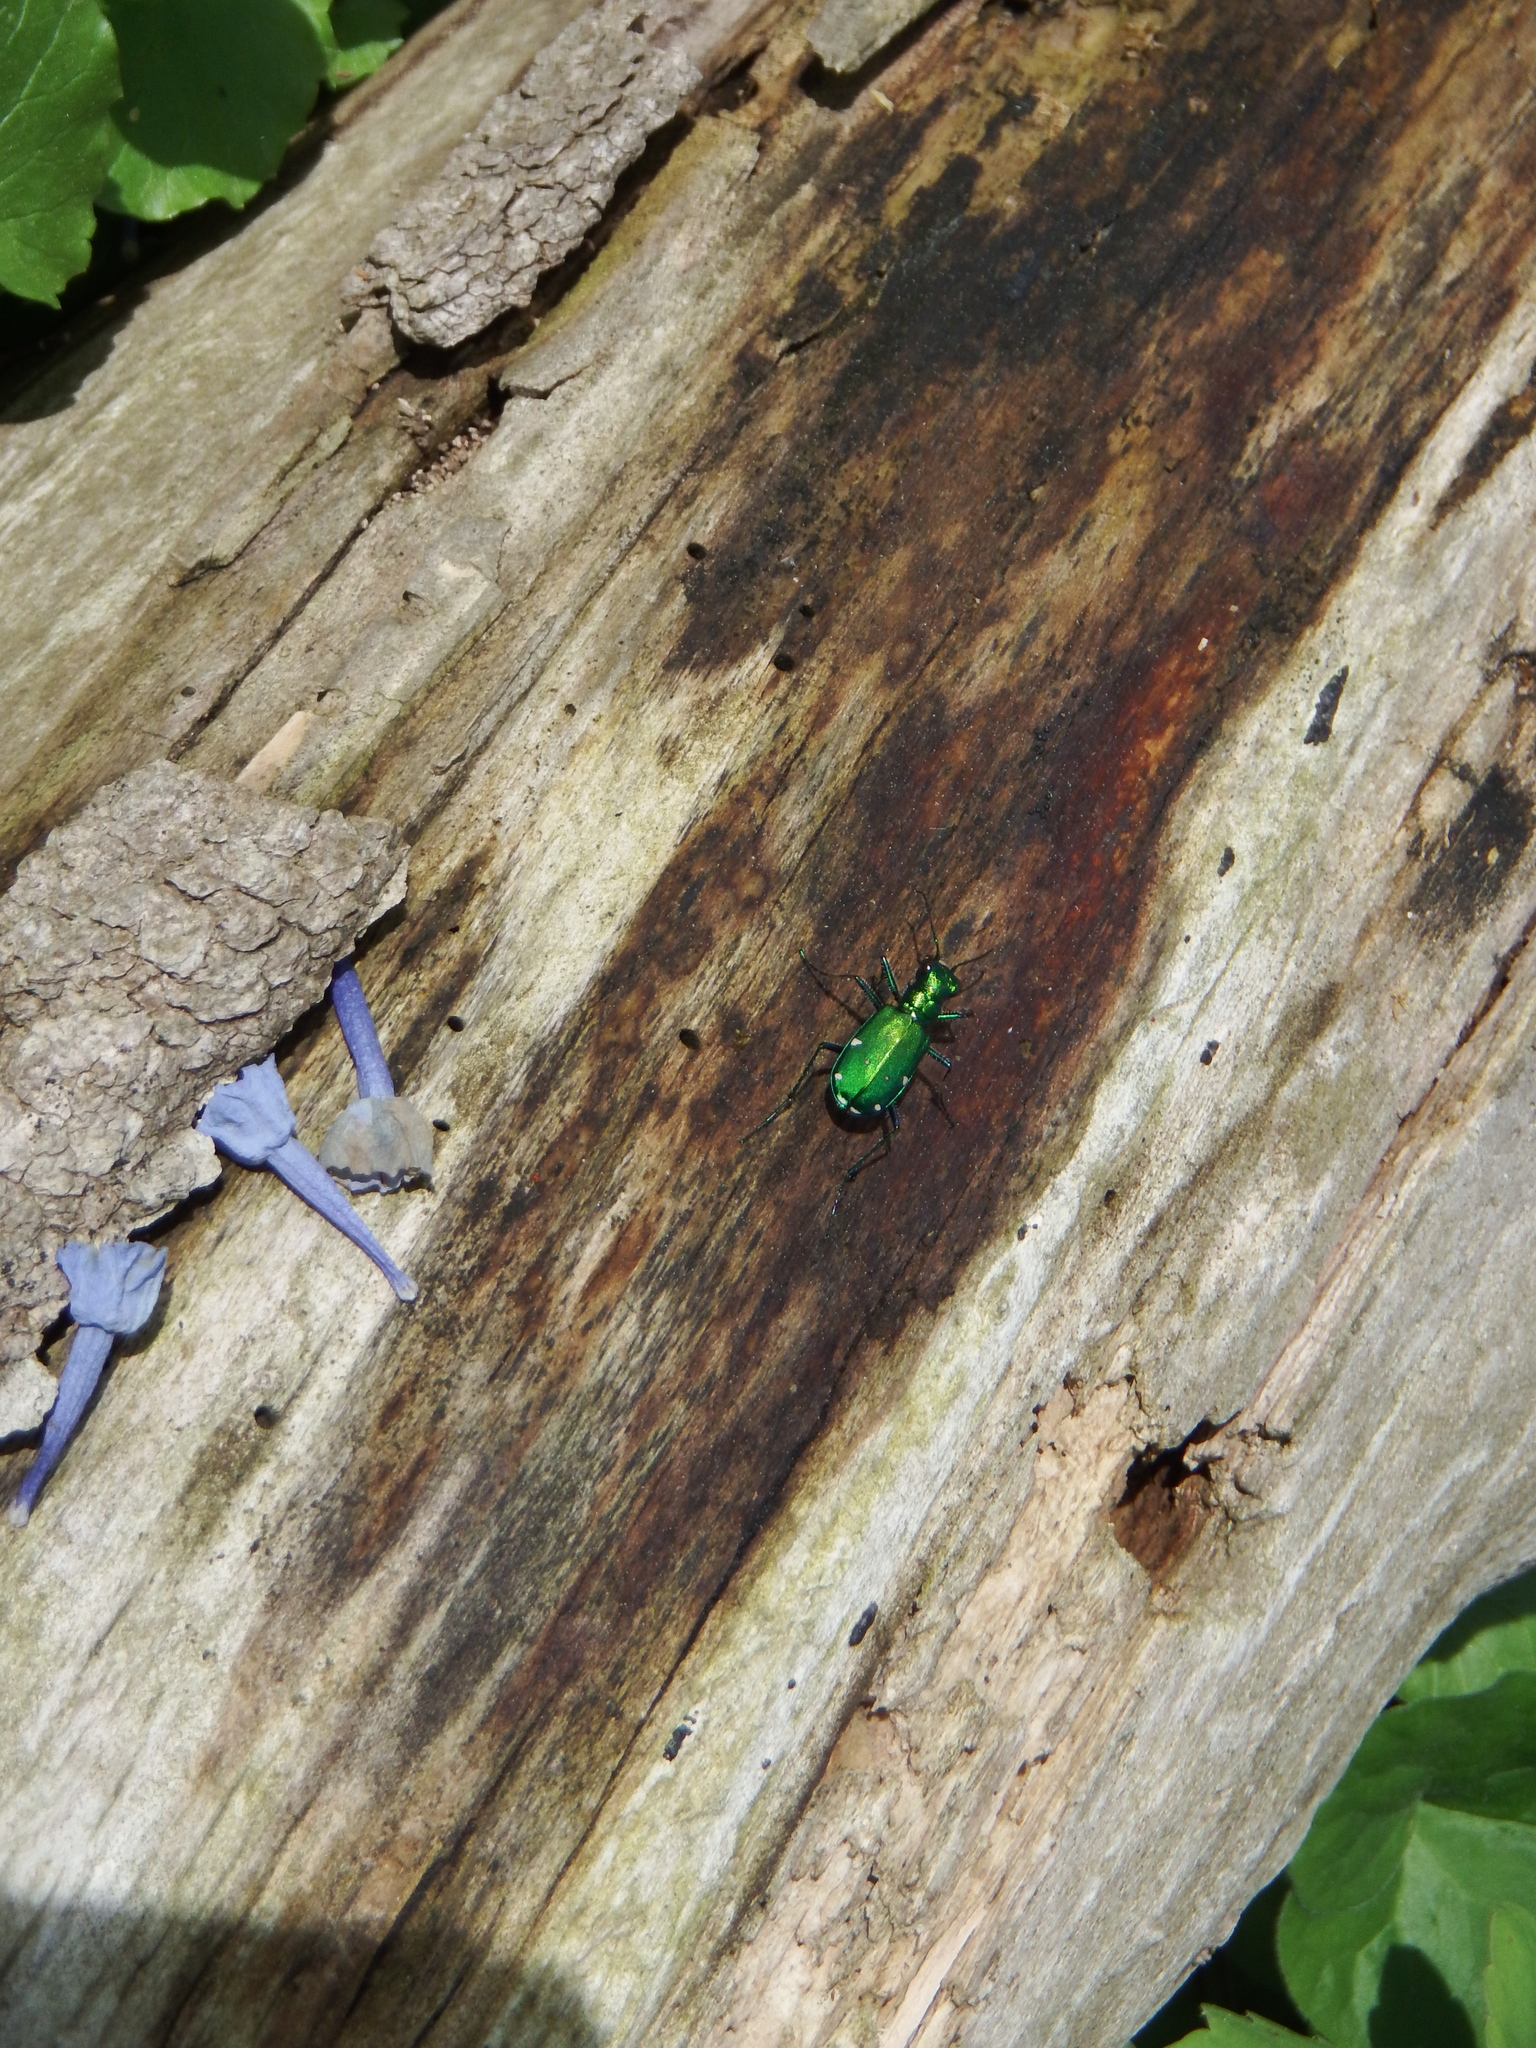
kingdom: Animalia
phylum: Arthropoda
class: Insecta
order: Coleoptera
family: Carabidae
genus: Cicindela
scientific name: Cicindela sexguttata
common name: Six-spotted tiger beetle
